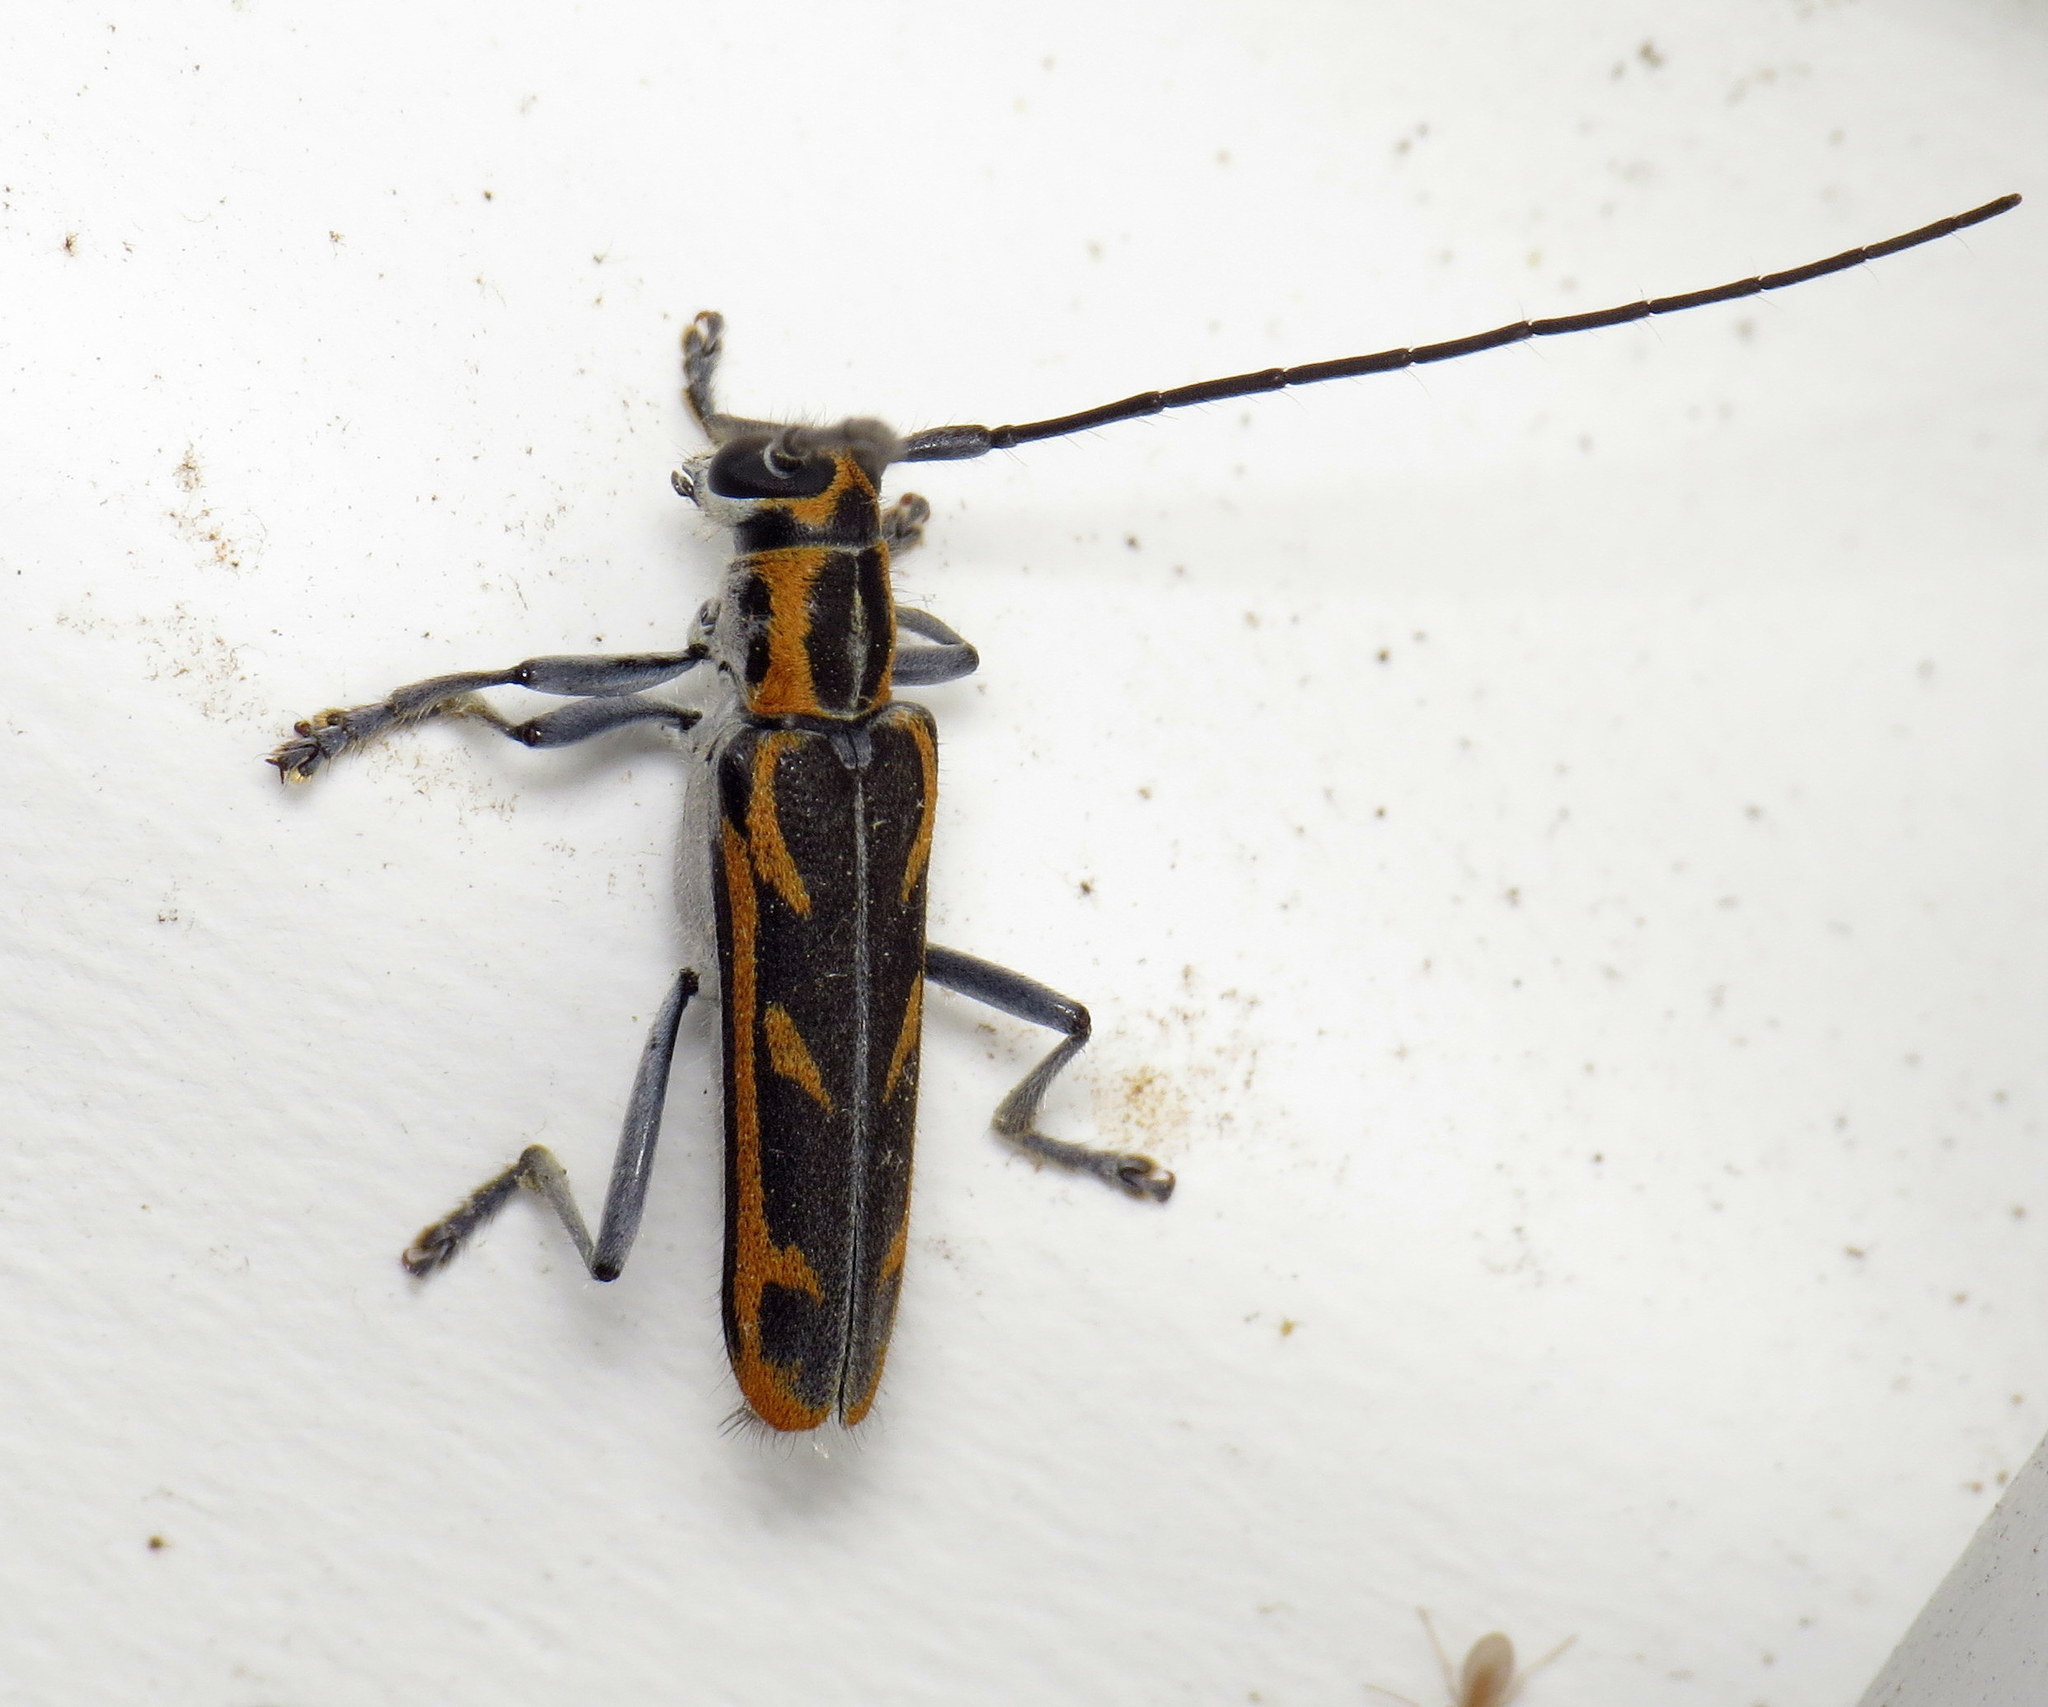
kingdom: Animalia
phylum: Arthropoda
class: Insecta
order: Coleoptera
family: Cerambycidae
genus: Saperda
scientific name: Saperda imitans
